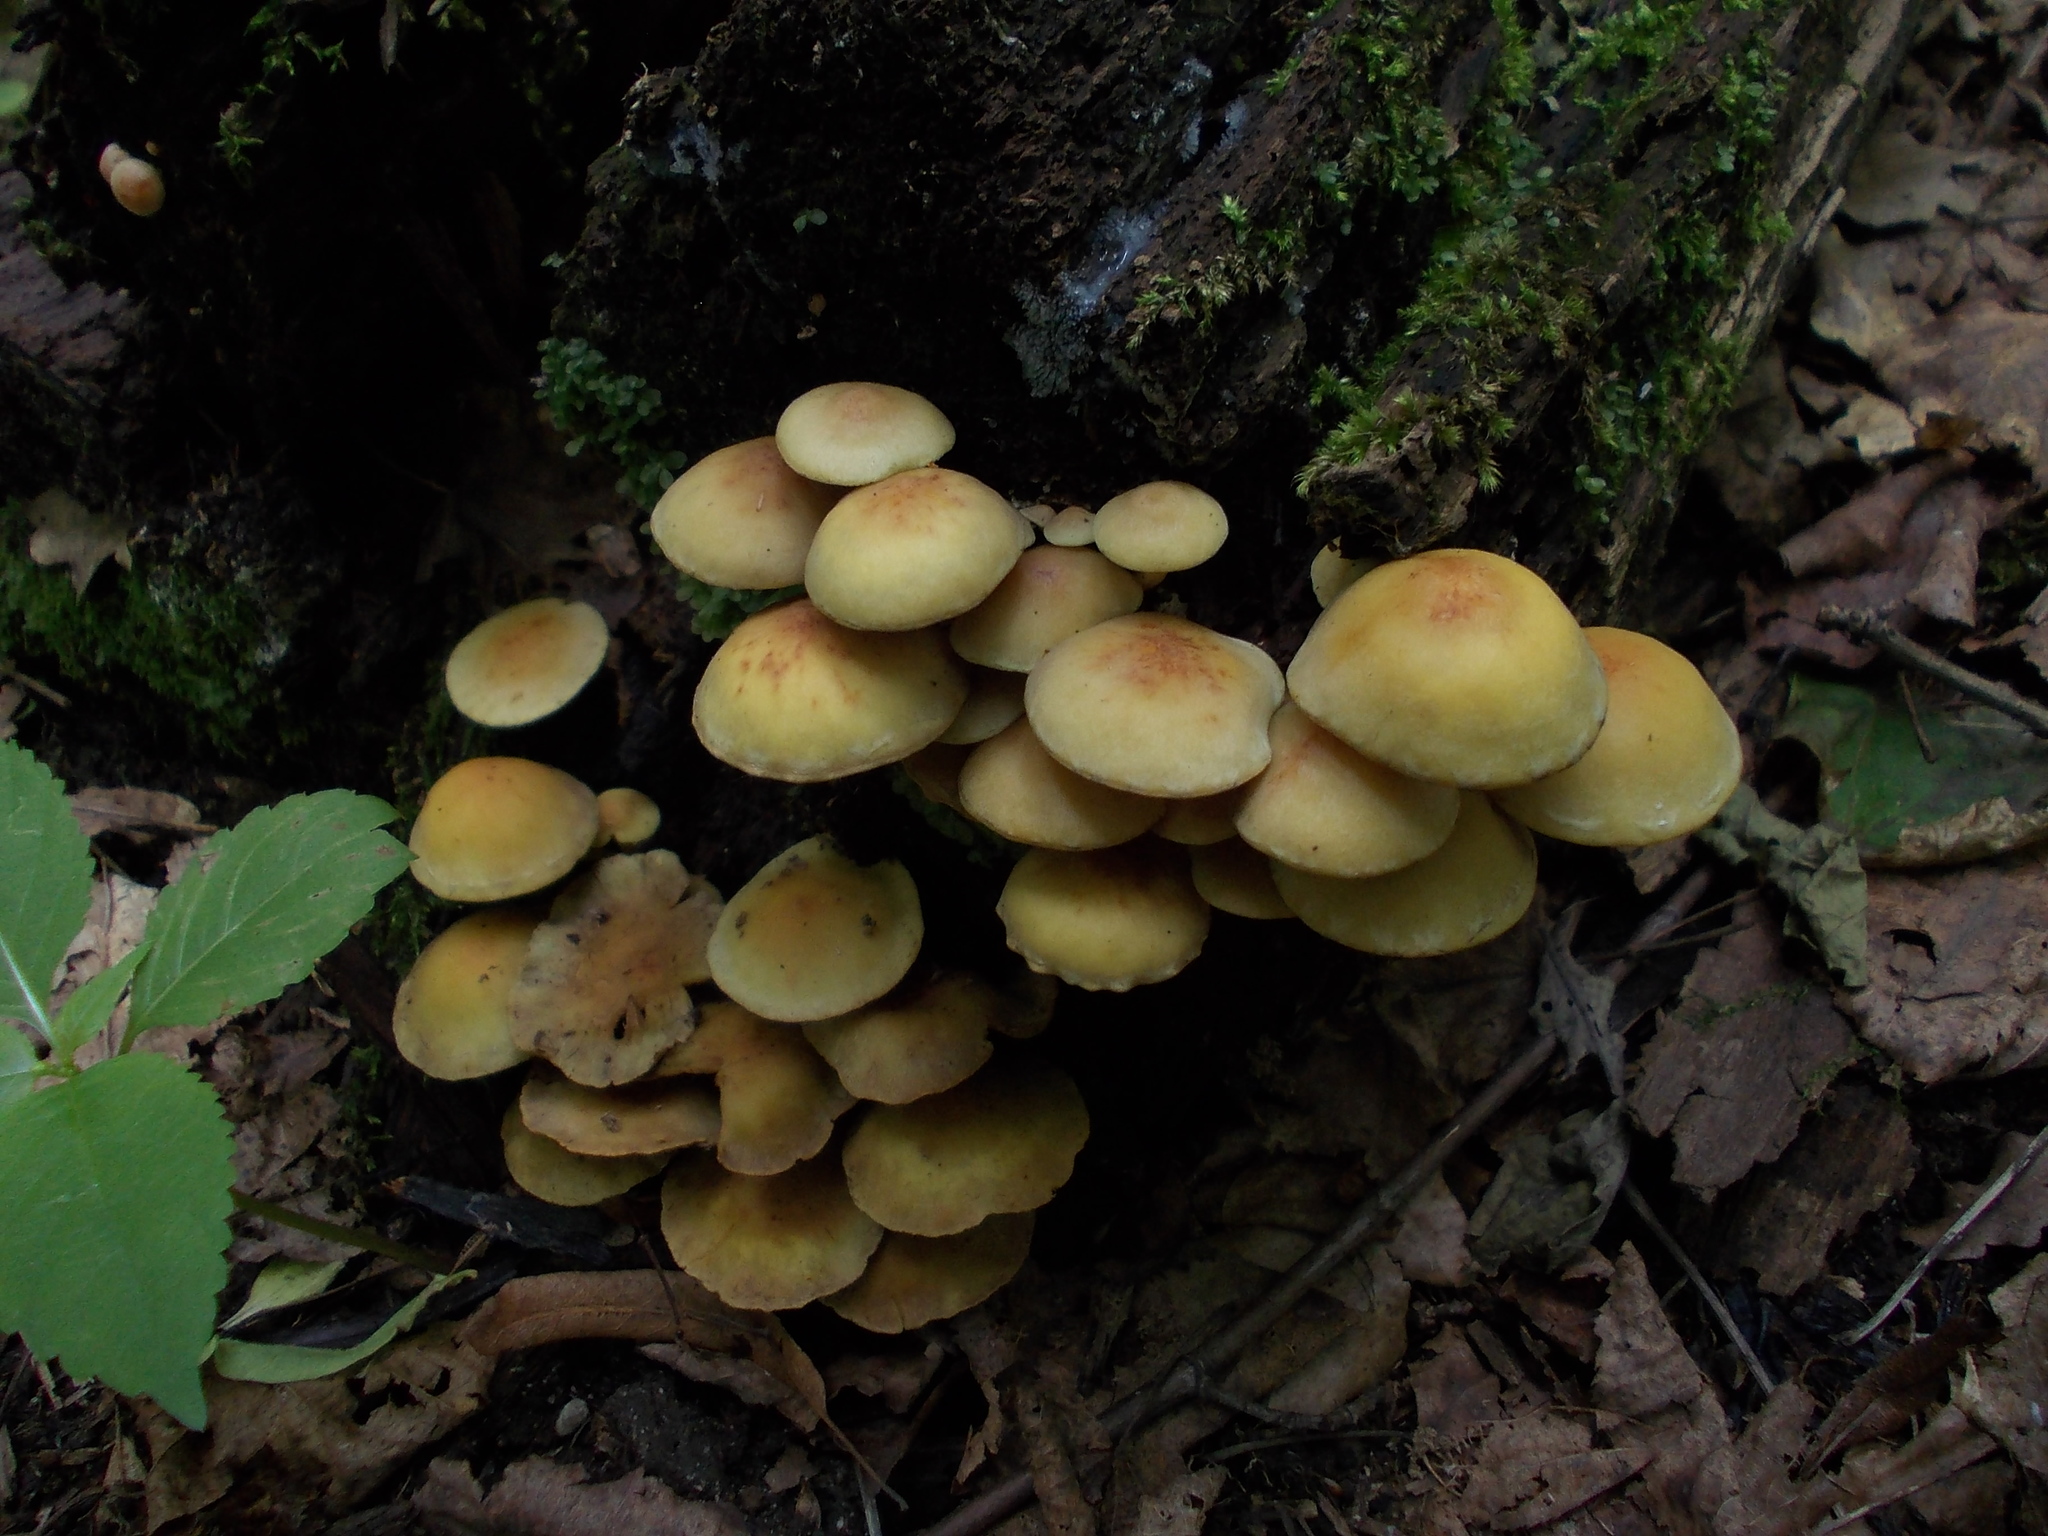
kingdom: Fungi
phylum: Basidiomycota
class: Agaricomycetes
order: Agaricales
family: Strophariaceae
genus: Hypholoma
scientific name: Hypholoma fasciculare
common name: Sulphur tuft
